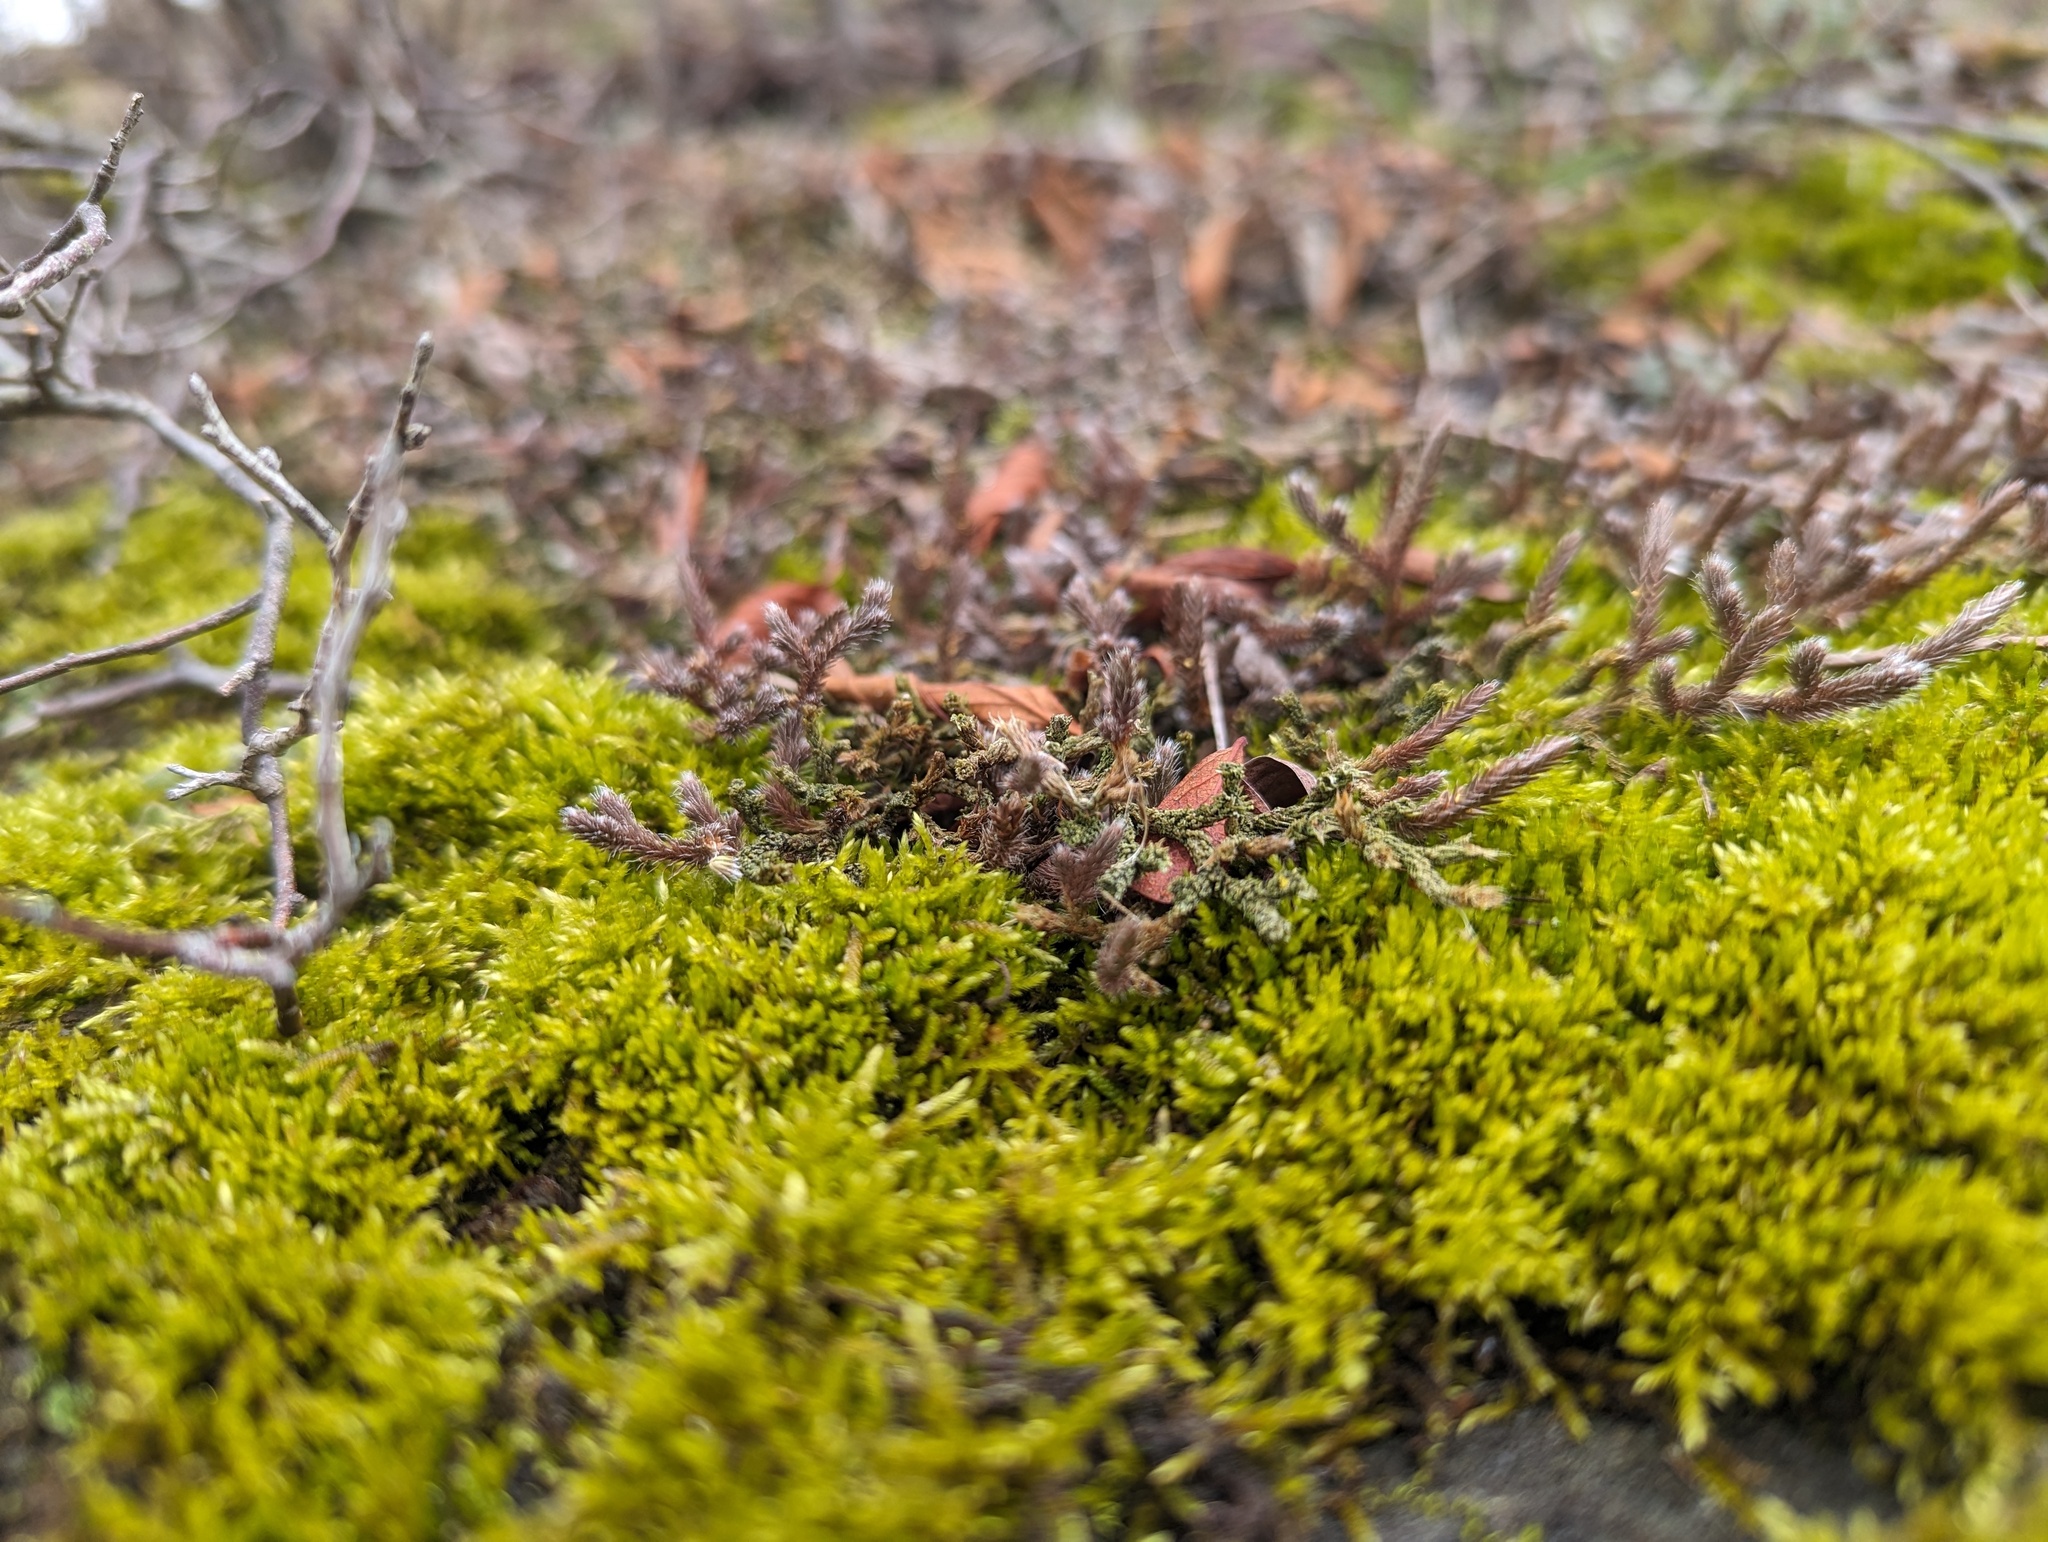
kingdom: Plantae
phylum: Tracheophyta
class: Lycopodiopsida
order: Selaginellales
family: Selaginellaceae
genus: Selaginella
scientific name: Selaginella rupestris
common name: Dwarf spikemoss
